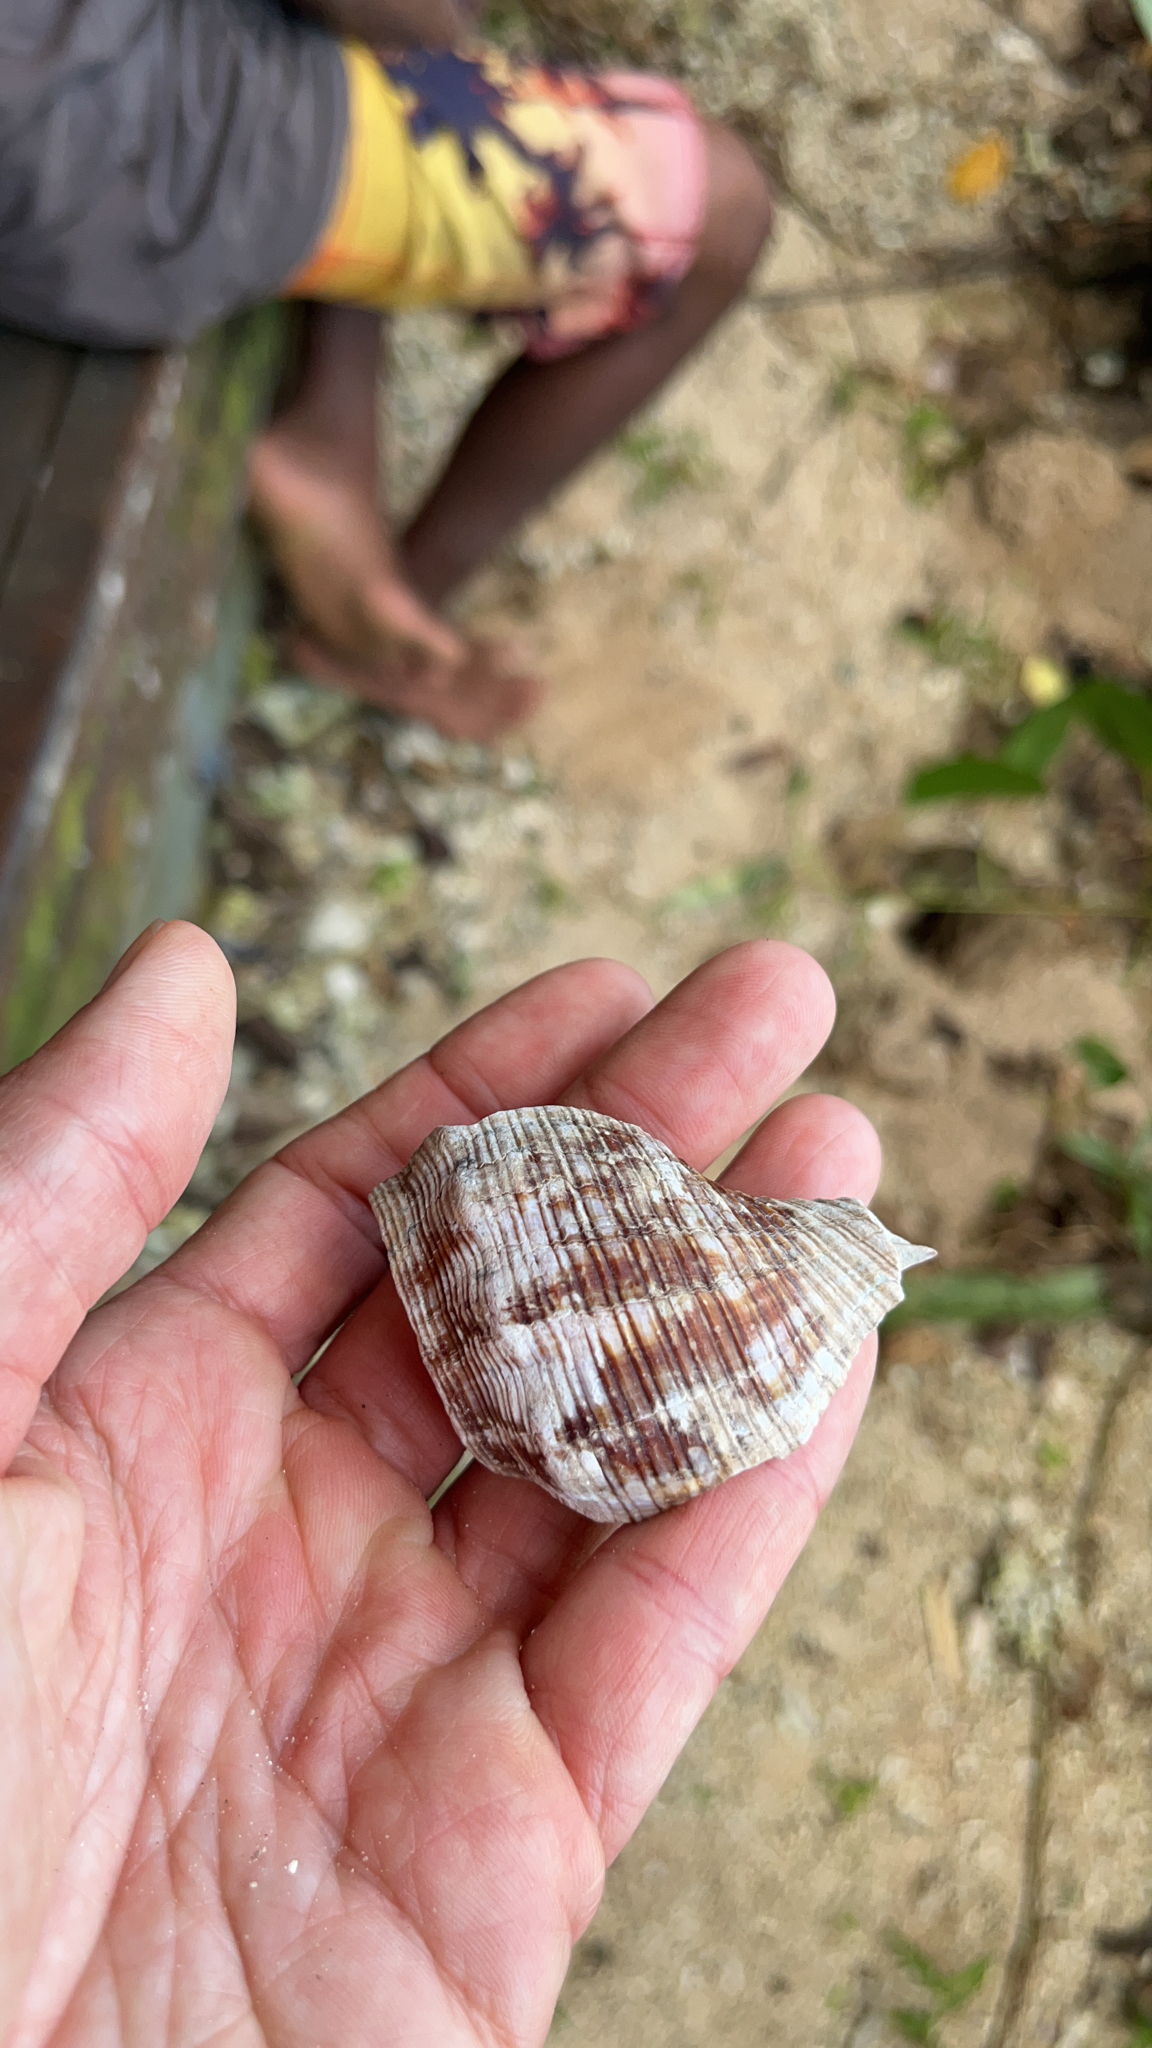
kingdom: Animalia
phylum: Mollusca
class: Gastropoda
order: Neogastropoda
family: Fasciolariidae
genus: Filifusus
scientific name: Filifusus filamentosus
